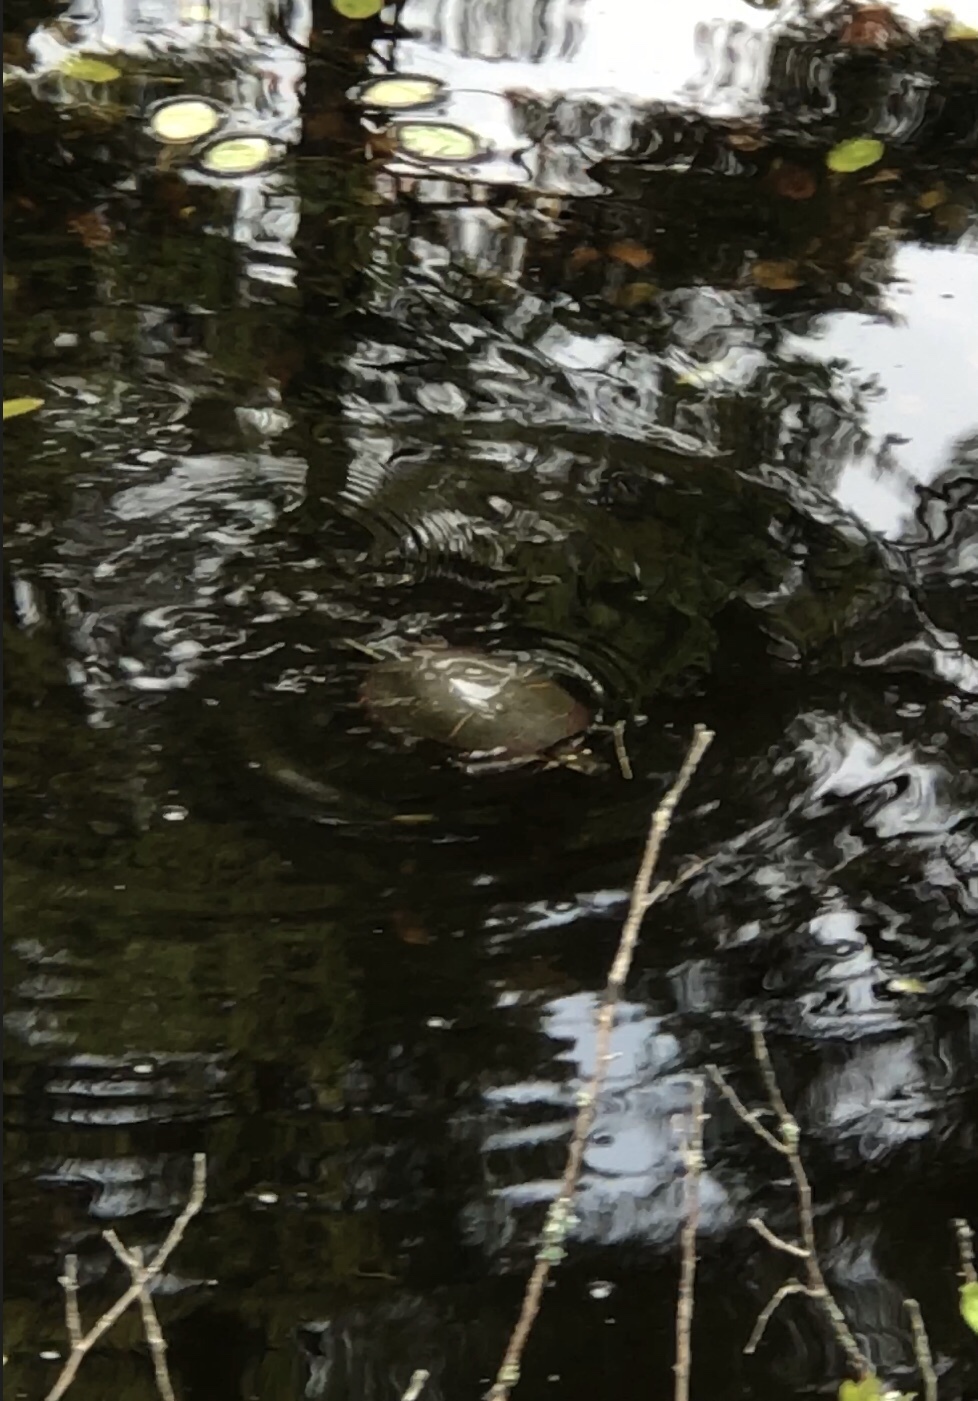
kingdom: Animalia
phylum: Chordata
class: Testudines
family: Emydidae
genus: Chrysemys
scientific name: Chrysemys picta
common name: Painted turtle
